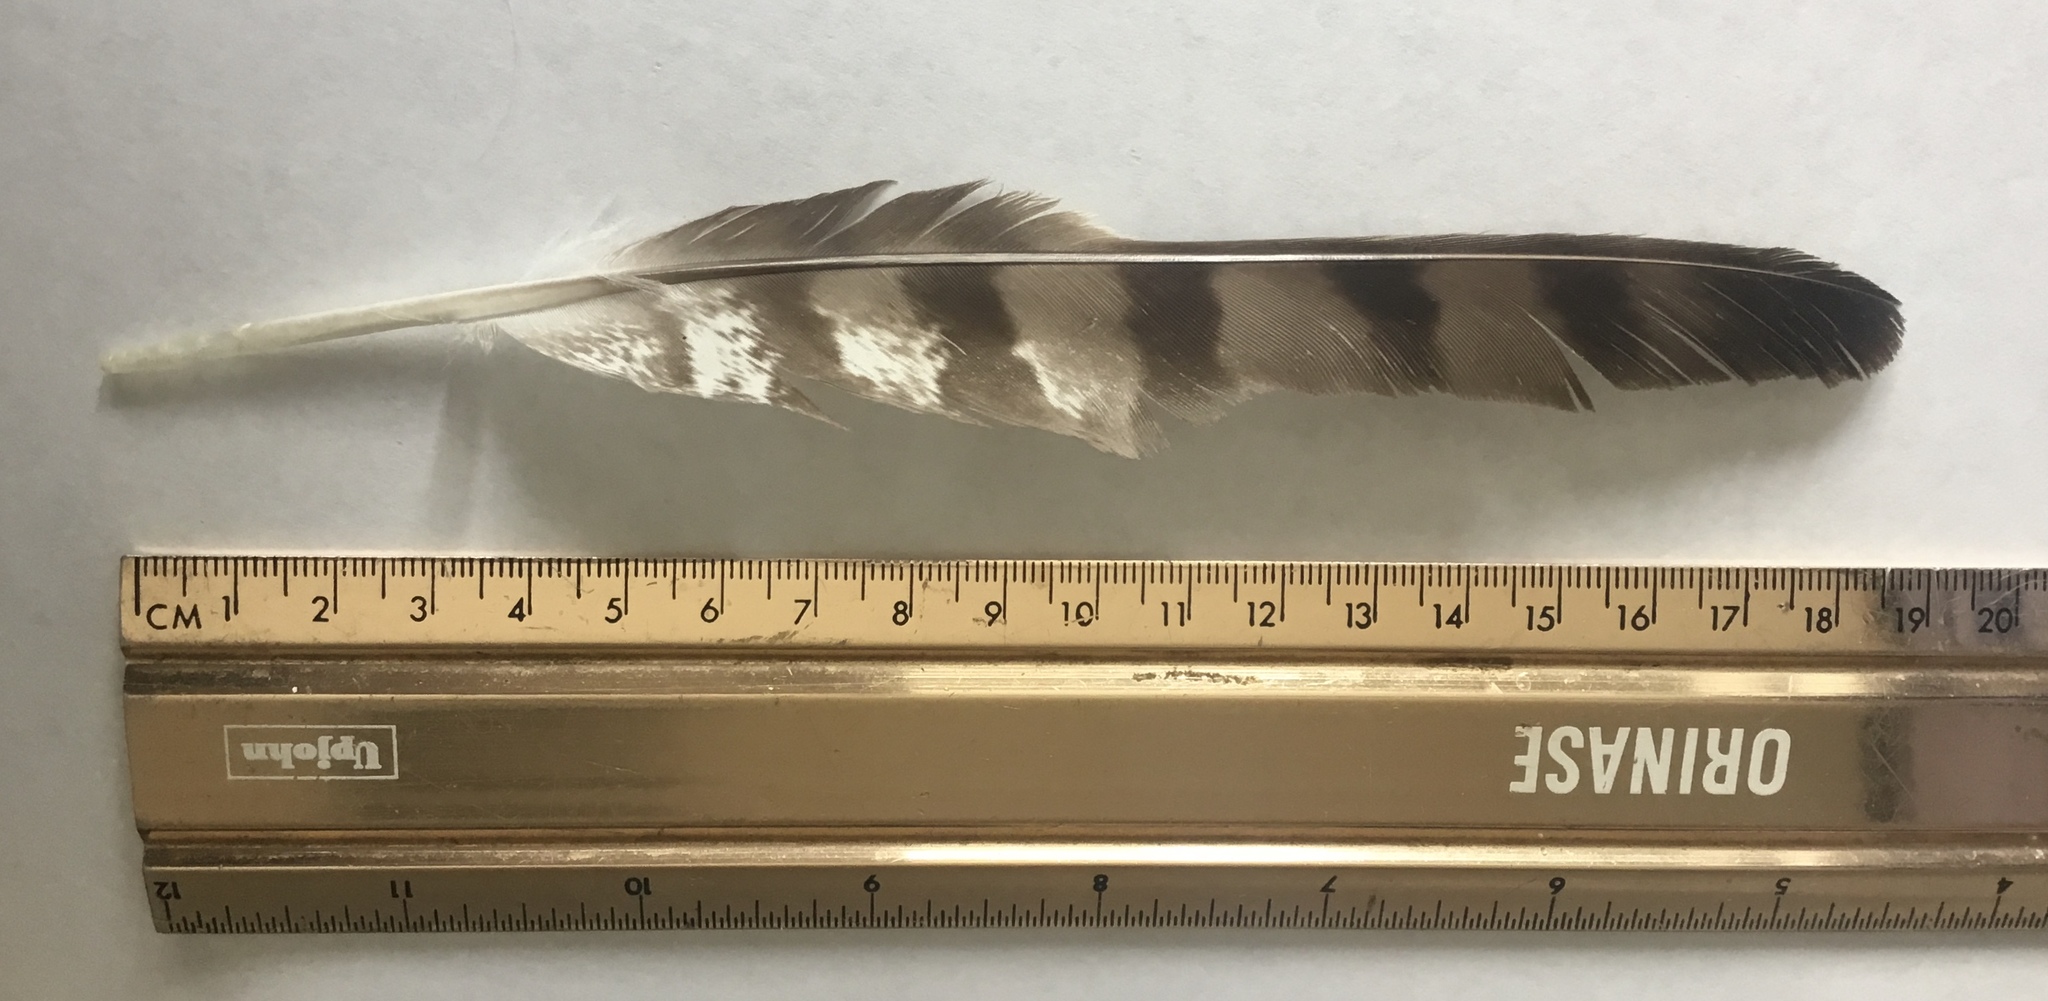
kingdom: Animalia
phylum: Chordata
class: Aves
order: Accipitriformes
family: Accipitridae
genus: Accipiter
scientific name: Accipiter cooperii
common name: Cooper's hawk
